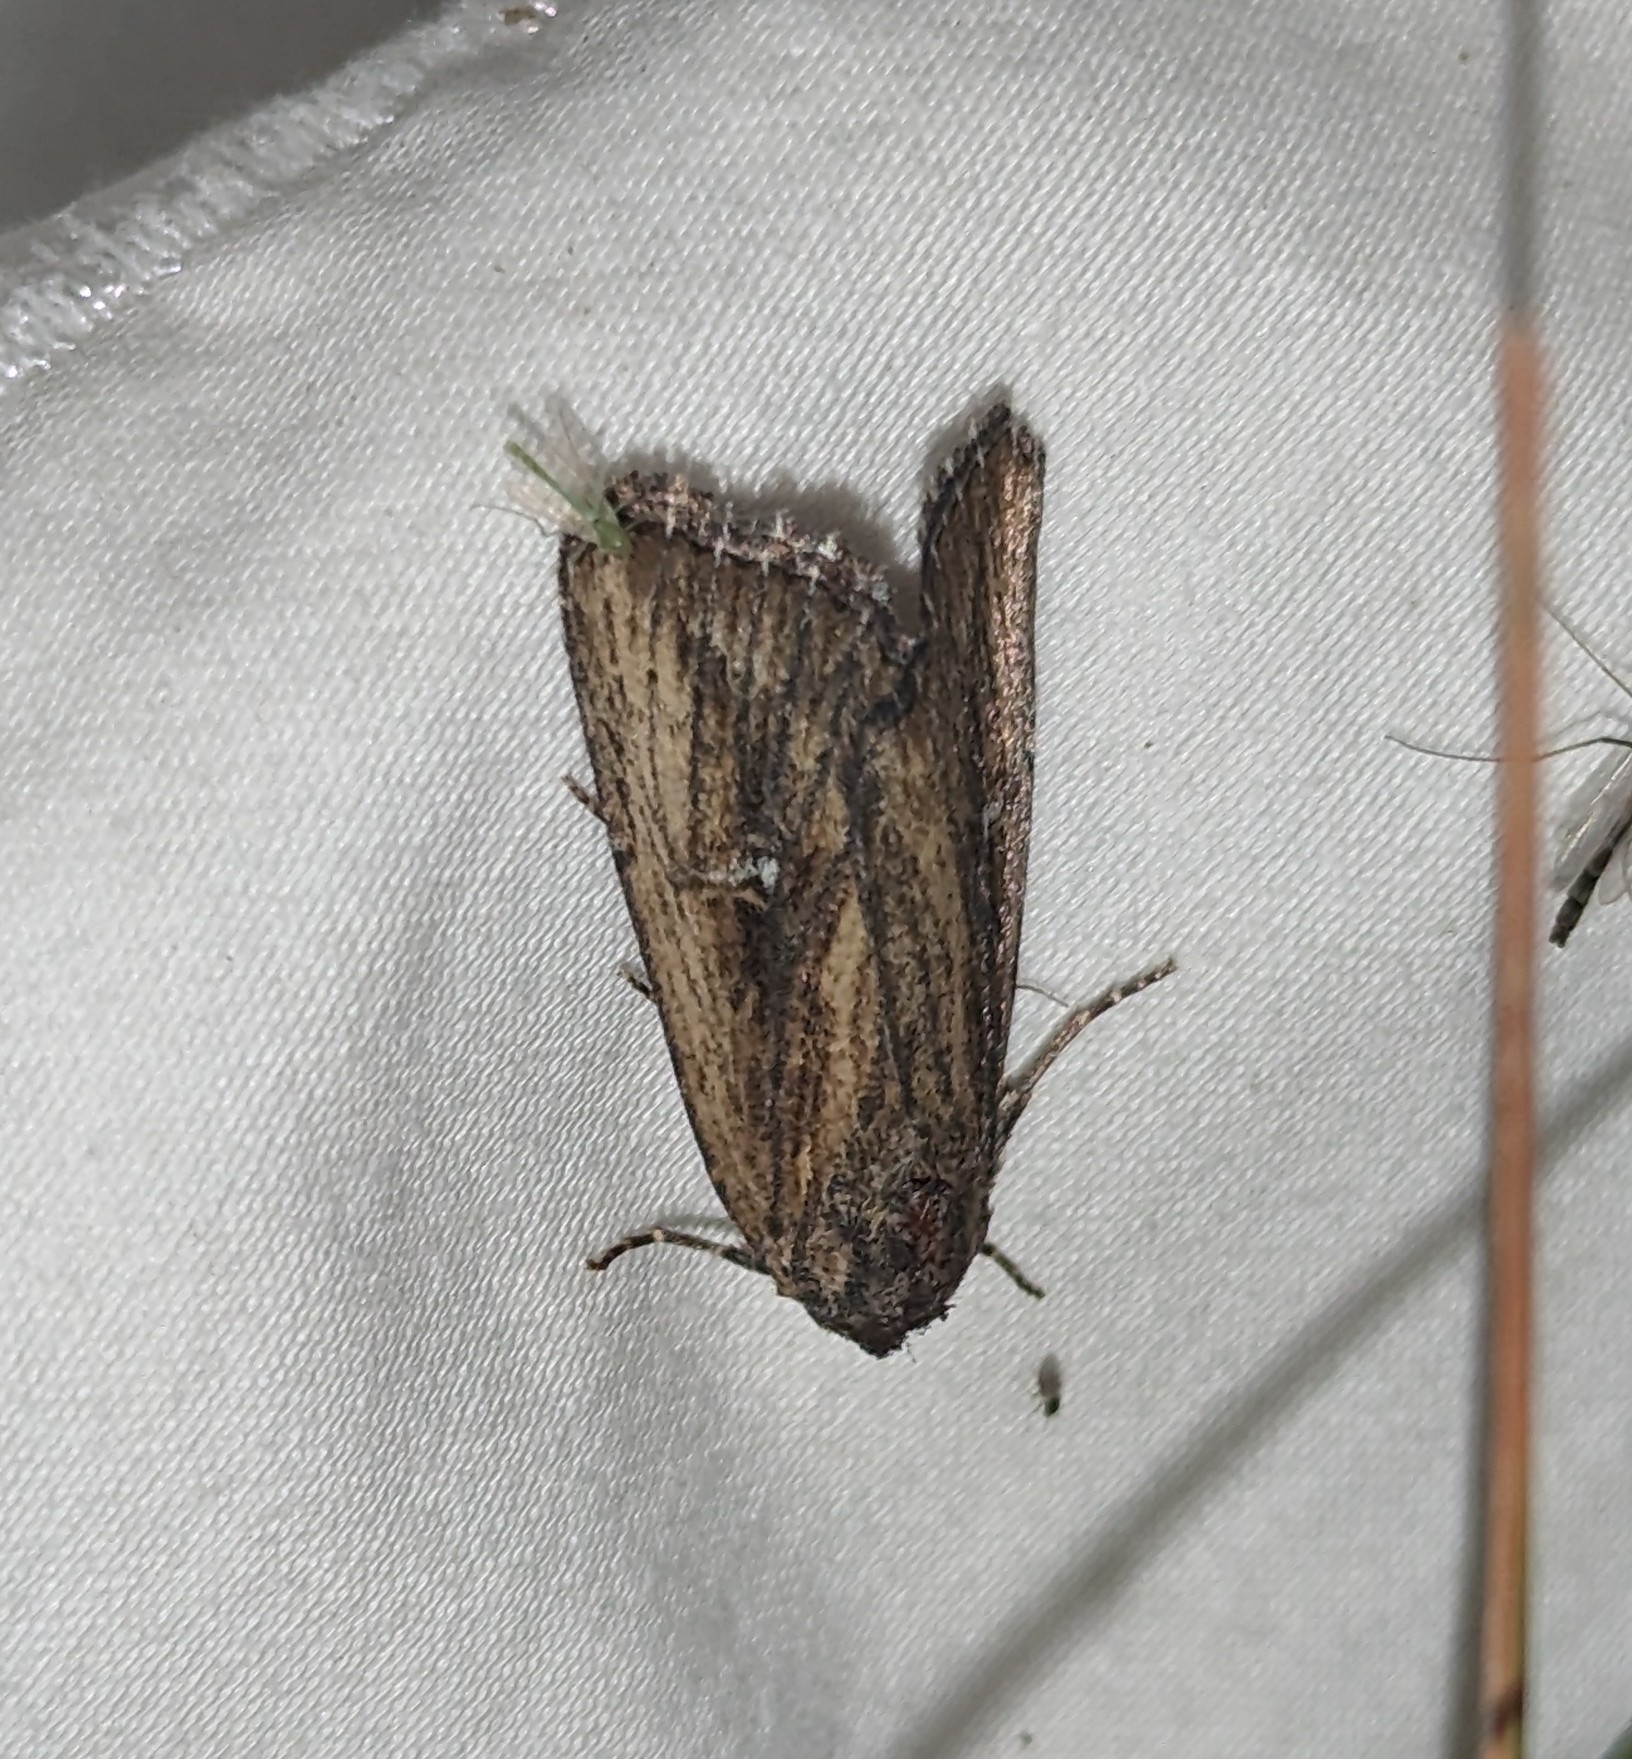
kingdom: Animalia
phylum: Arthropoda
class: Insecta
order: Lepidoptera
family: Noctuidae
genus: Condica
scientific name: Condica discistriga
